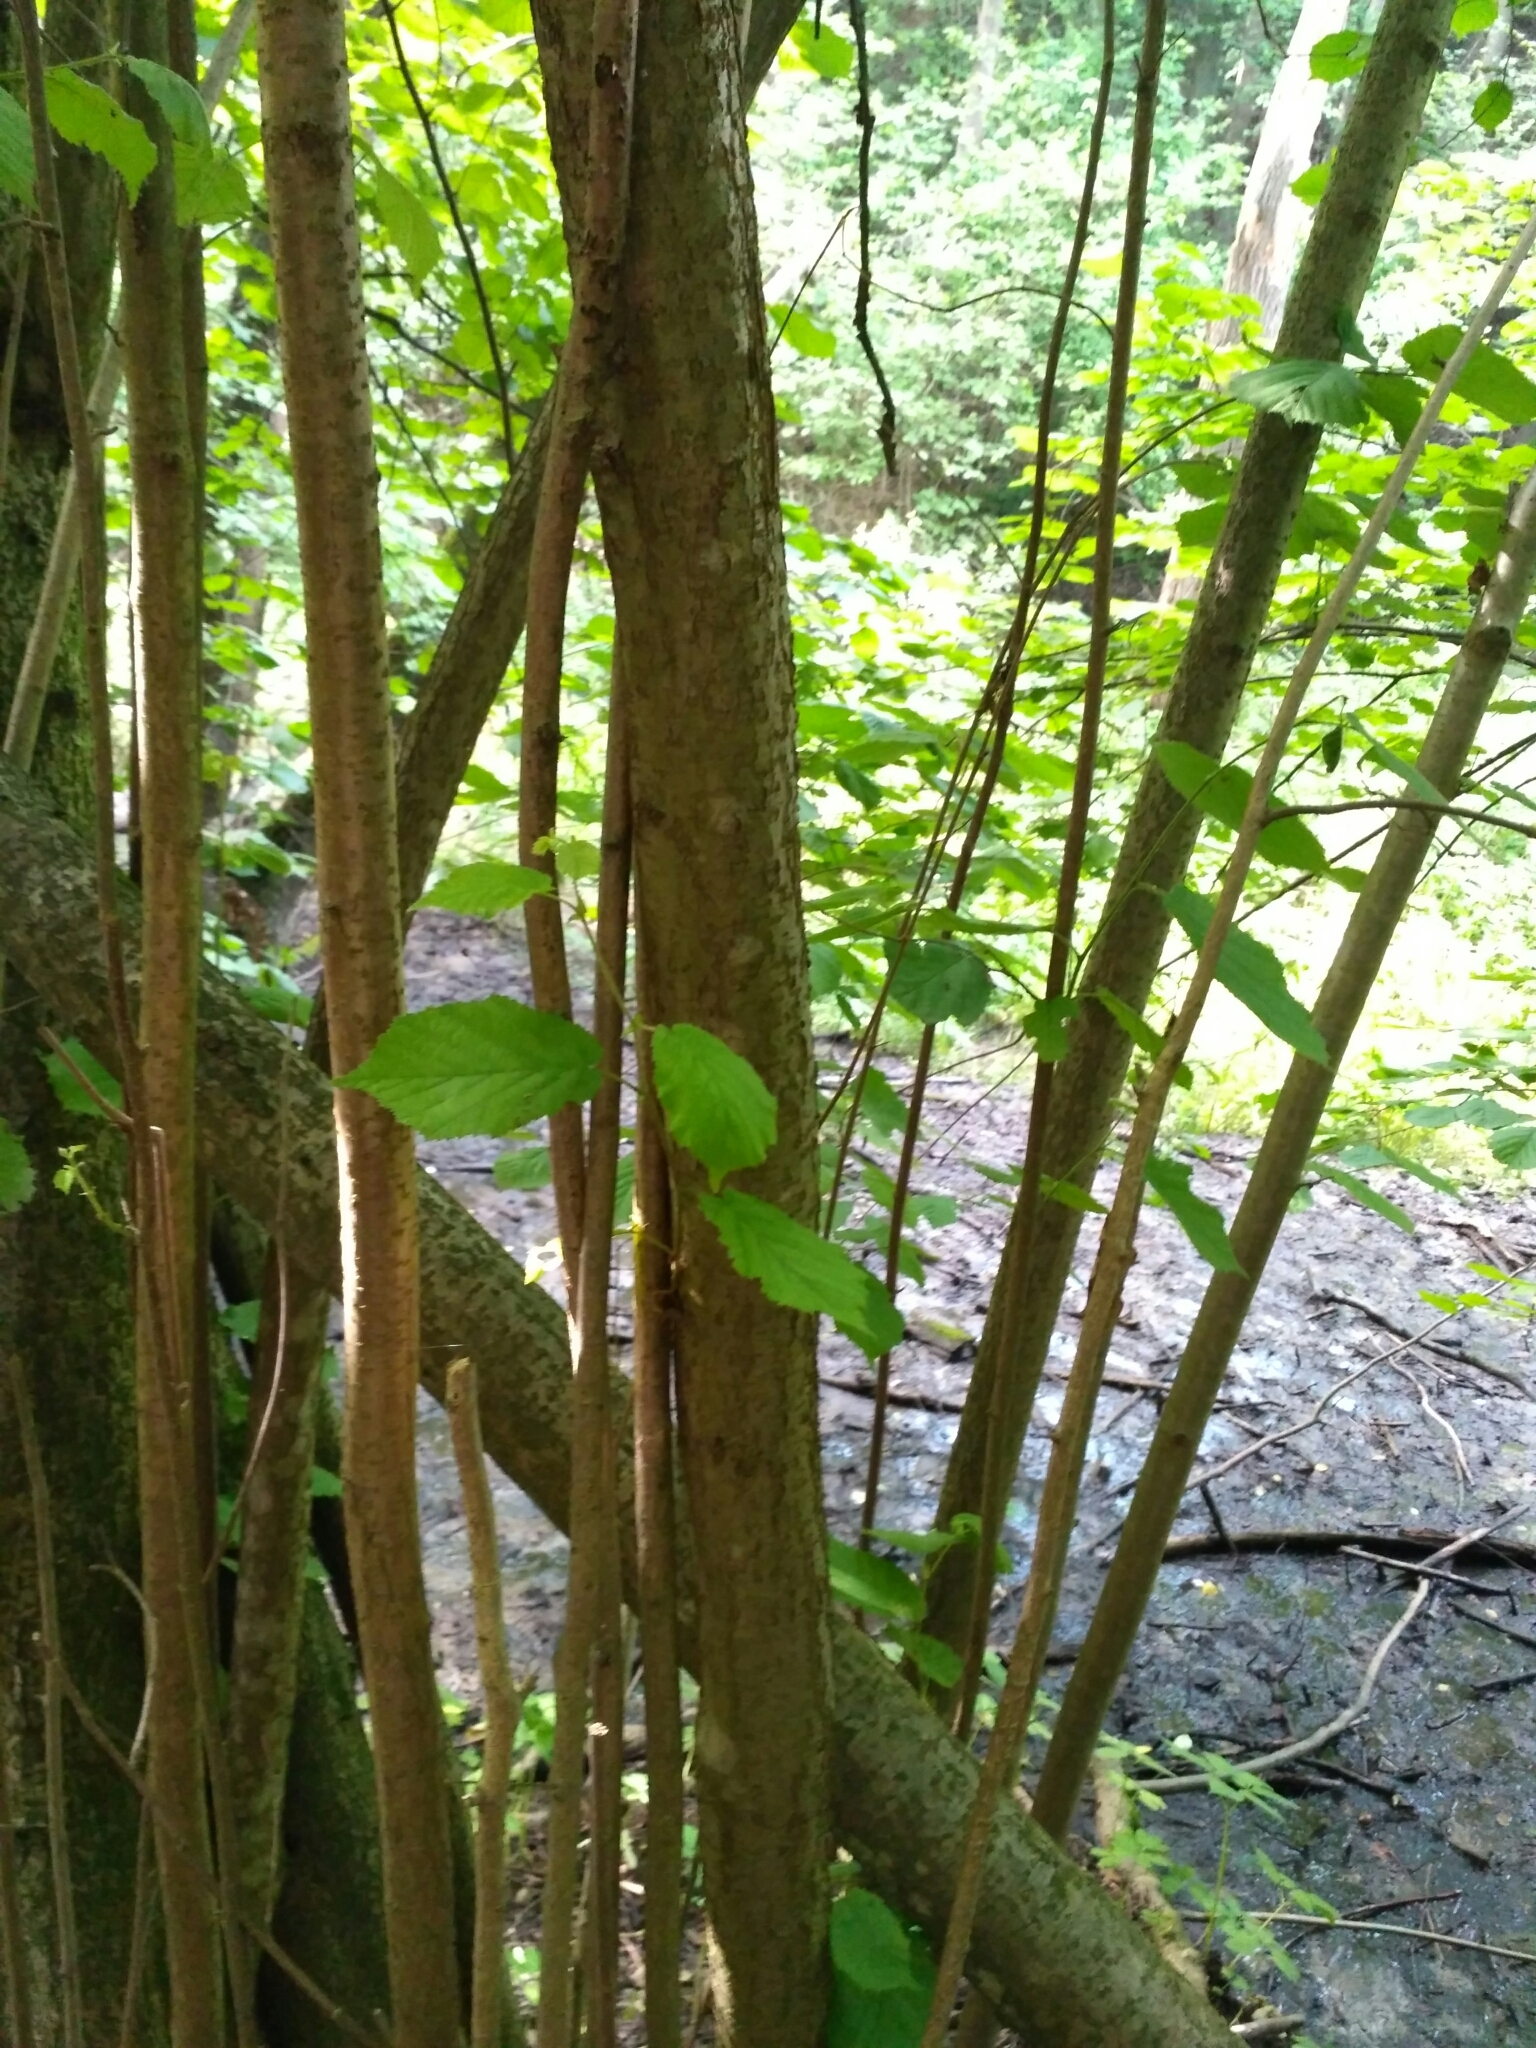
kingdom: Plantae
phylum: Tracheophyta
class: Magnoliopsida
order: Fagales
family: Betulaceae
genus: Corylus
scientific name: Corylus avellana
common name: European hazel
